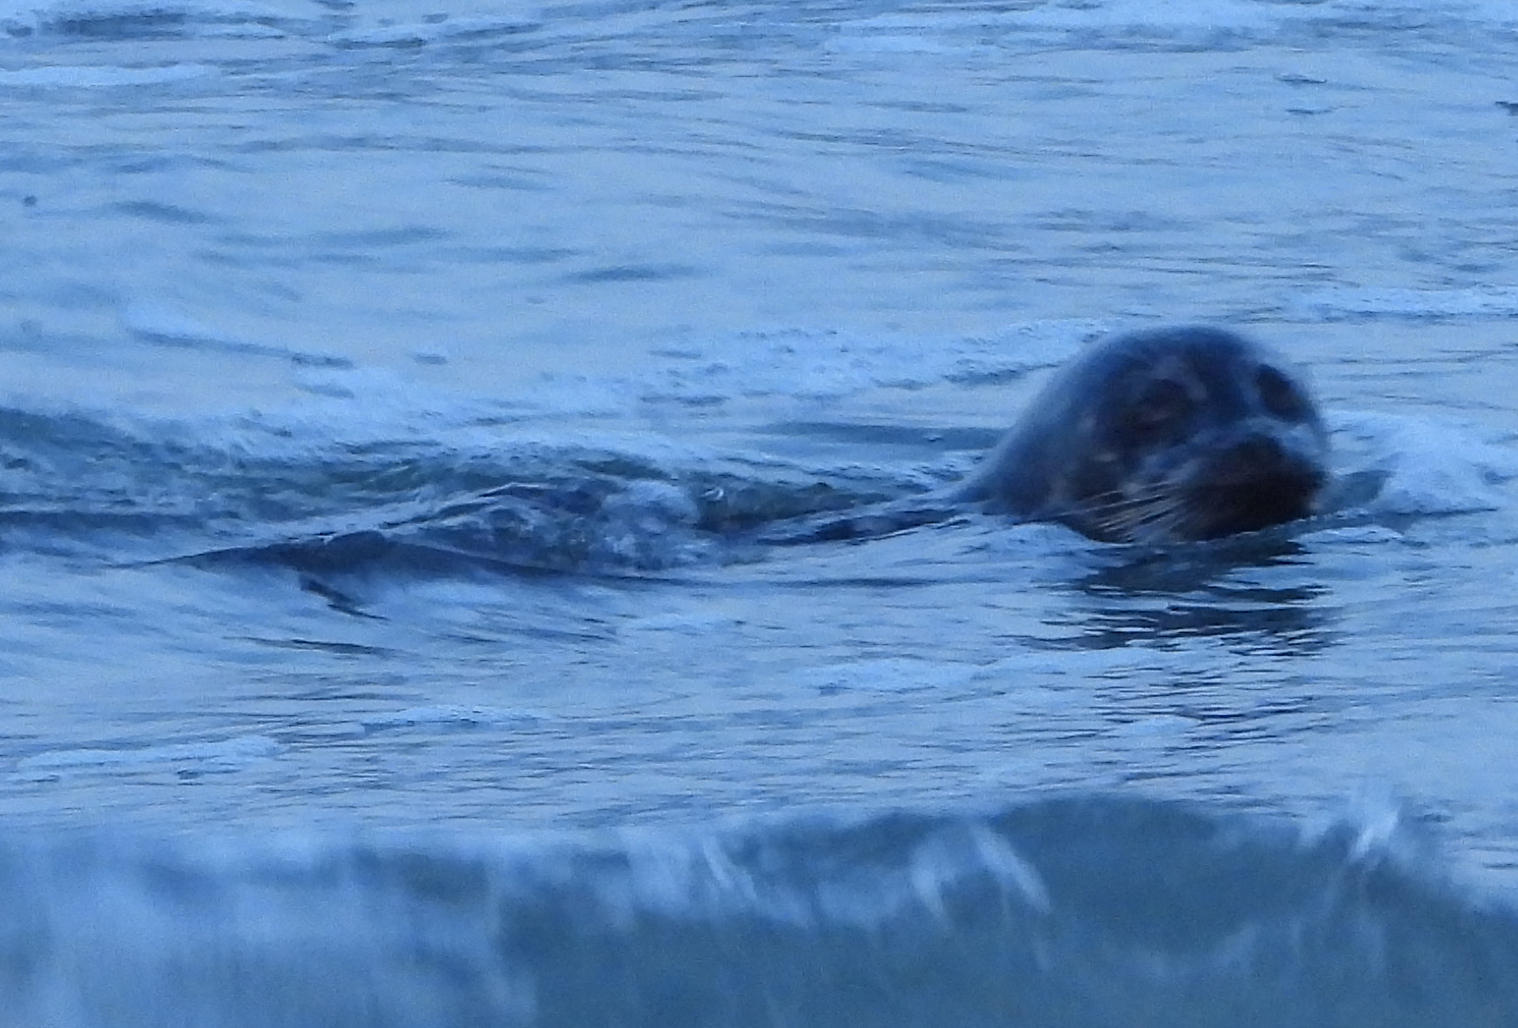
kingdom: Animalia
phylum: Chordata
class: Mammalia
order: Carnivora
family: Phocidae
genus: Phoca
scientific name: Phoca vitulina
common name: Harbor seal
